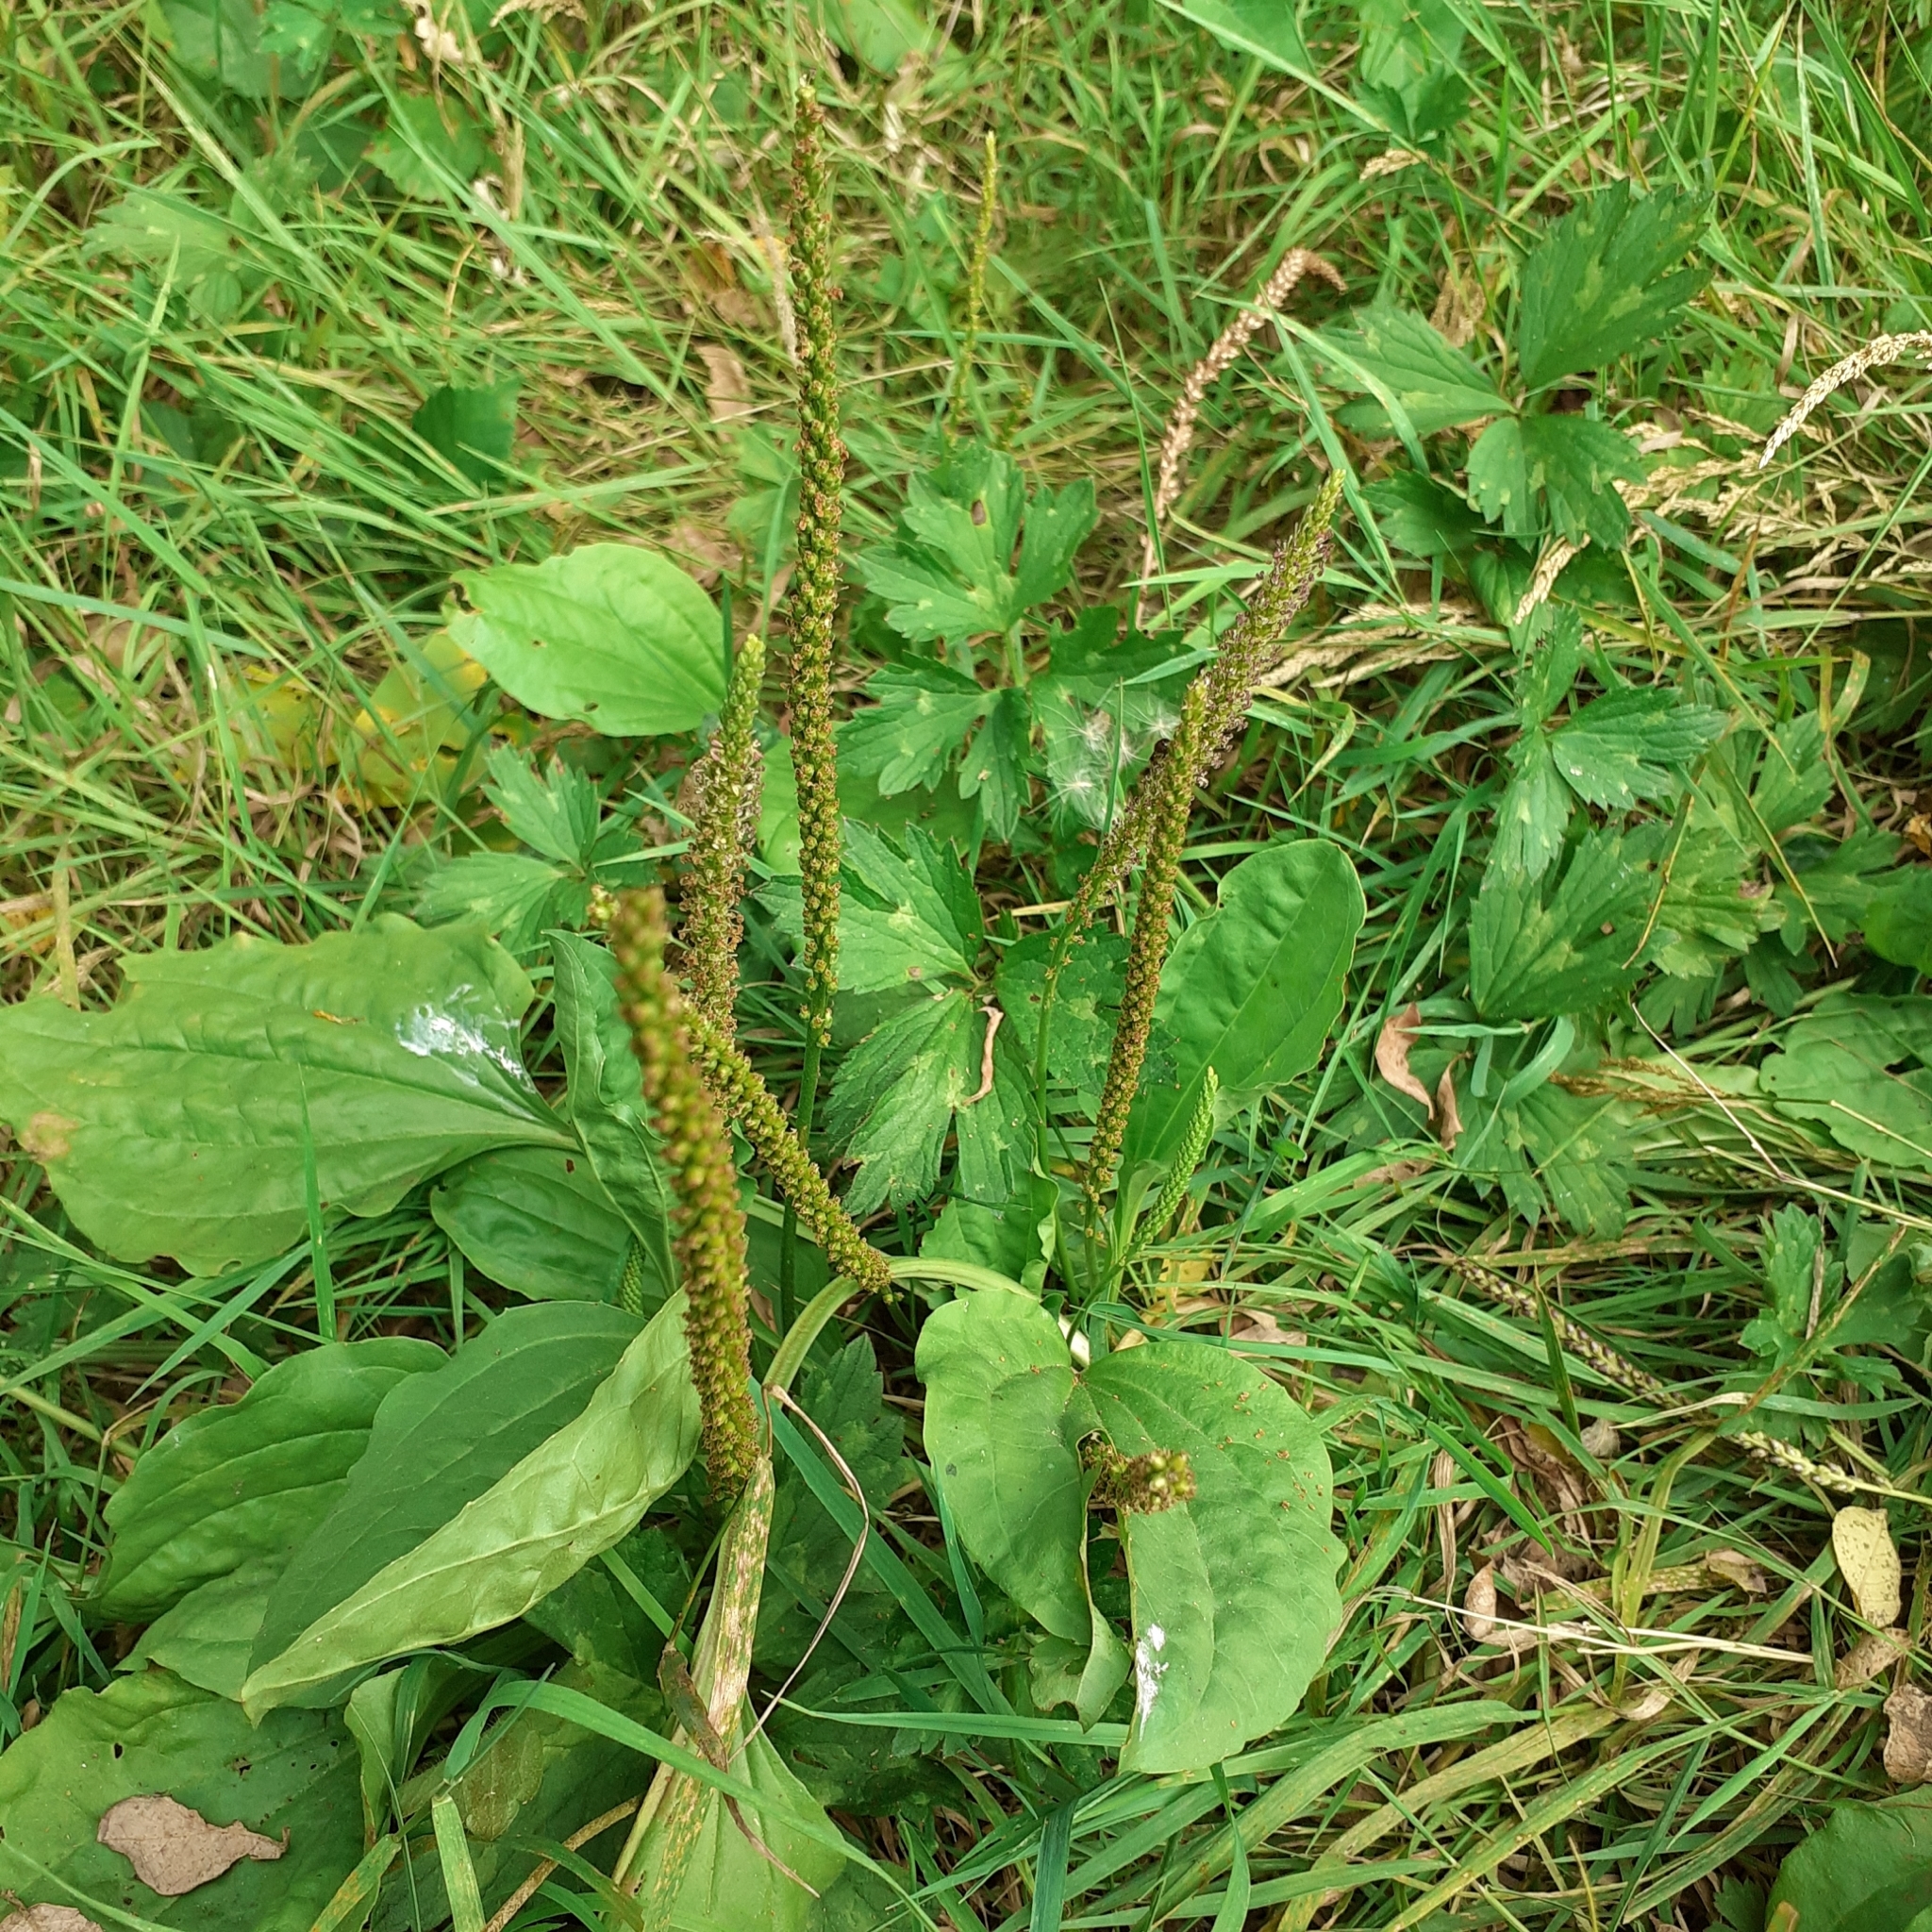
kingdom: Plantae
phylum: Tracheophyta
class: Magnoliopsida
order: Lamiales
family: Plantaginaceae
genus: Plantago
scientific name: Plantago major
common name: Common plantain
